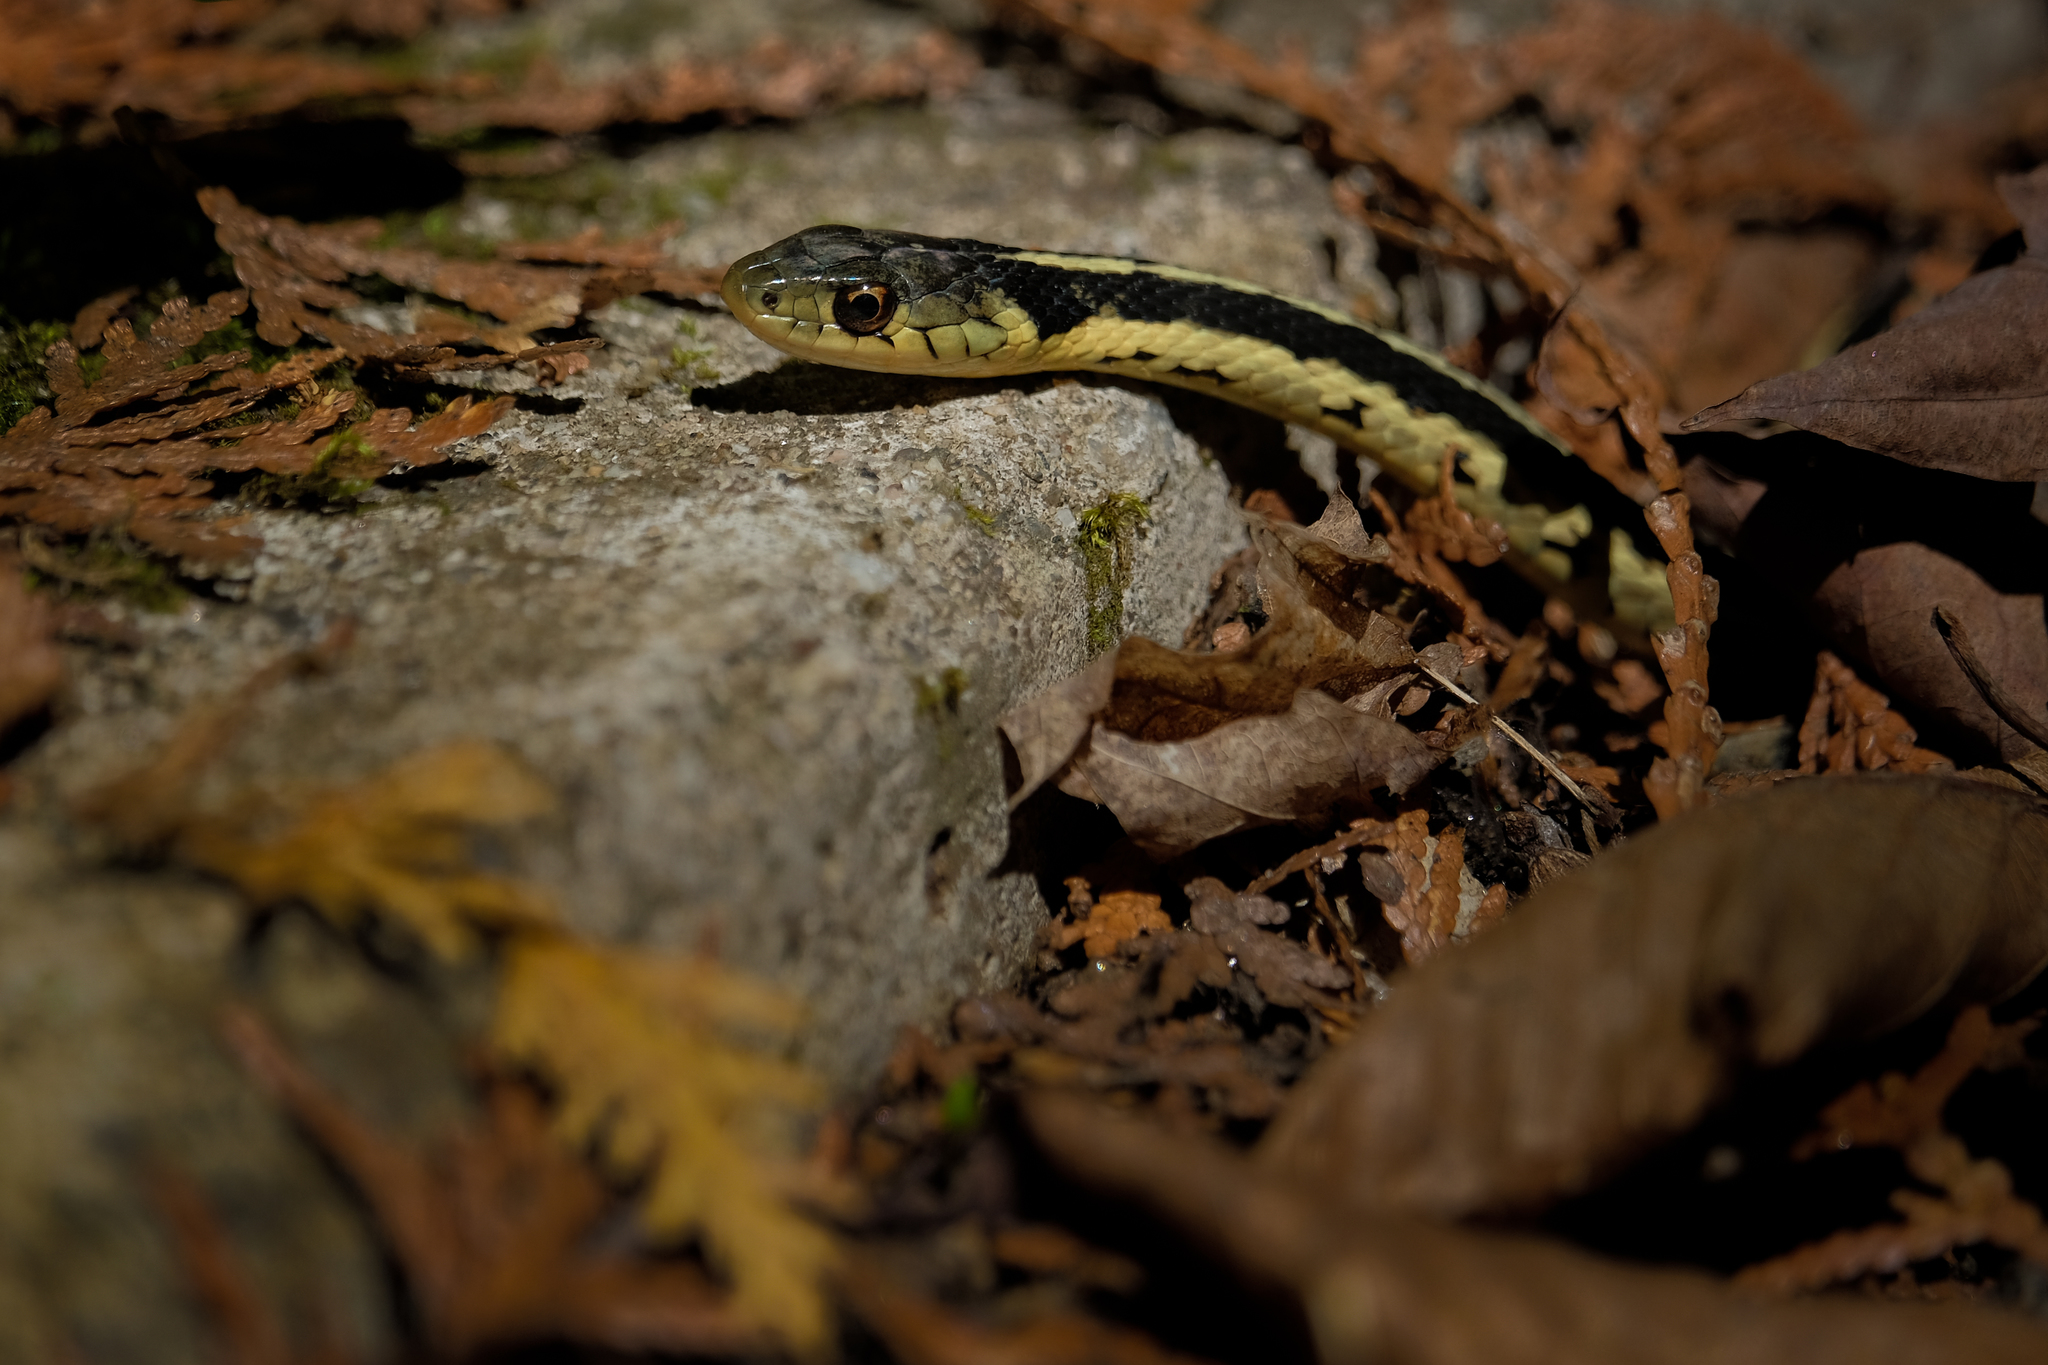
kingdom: Animalia
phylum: Chordata
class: Squamata
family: Colubridae
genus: Thamnophis
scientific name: Thamnophis sirtalis
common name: Common garter snake
